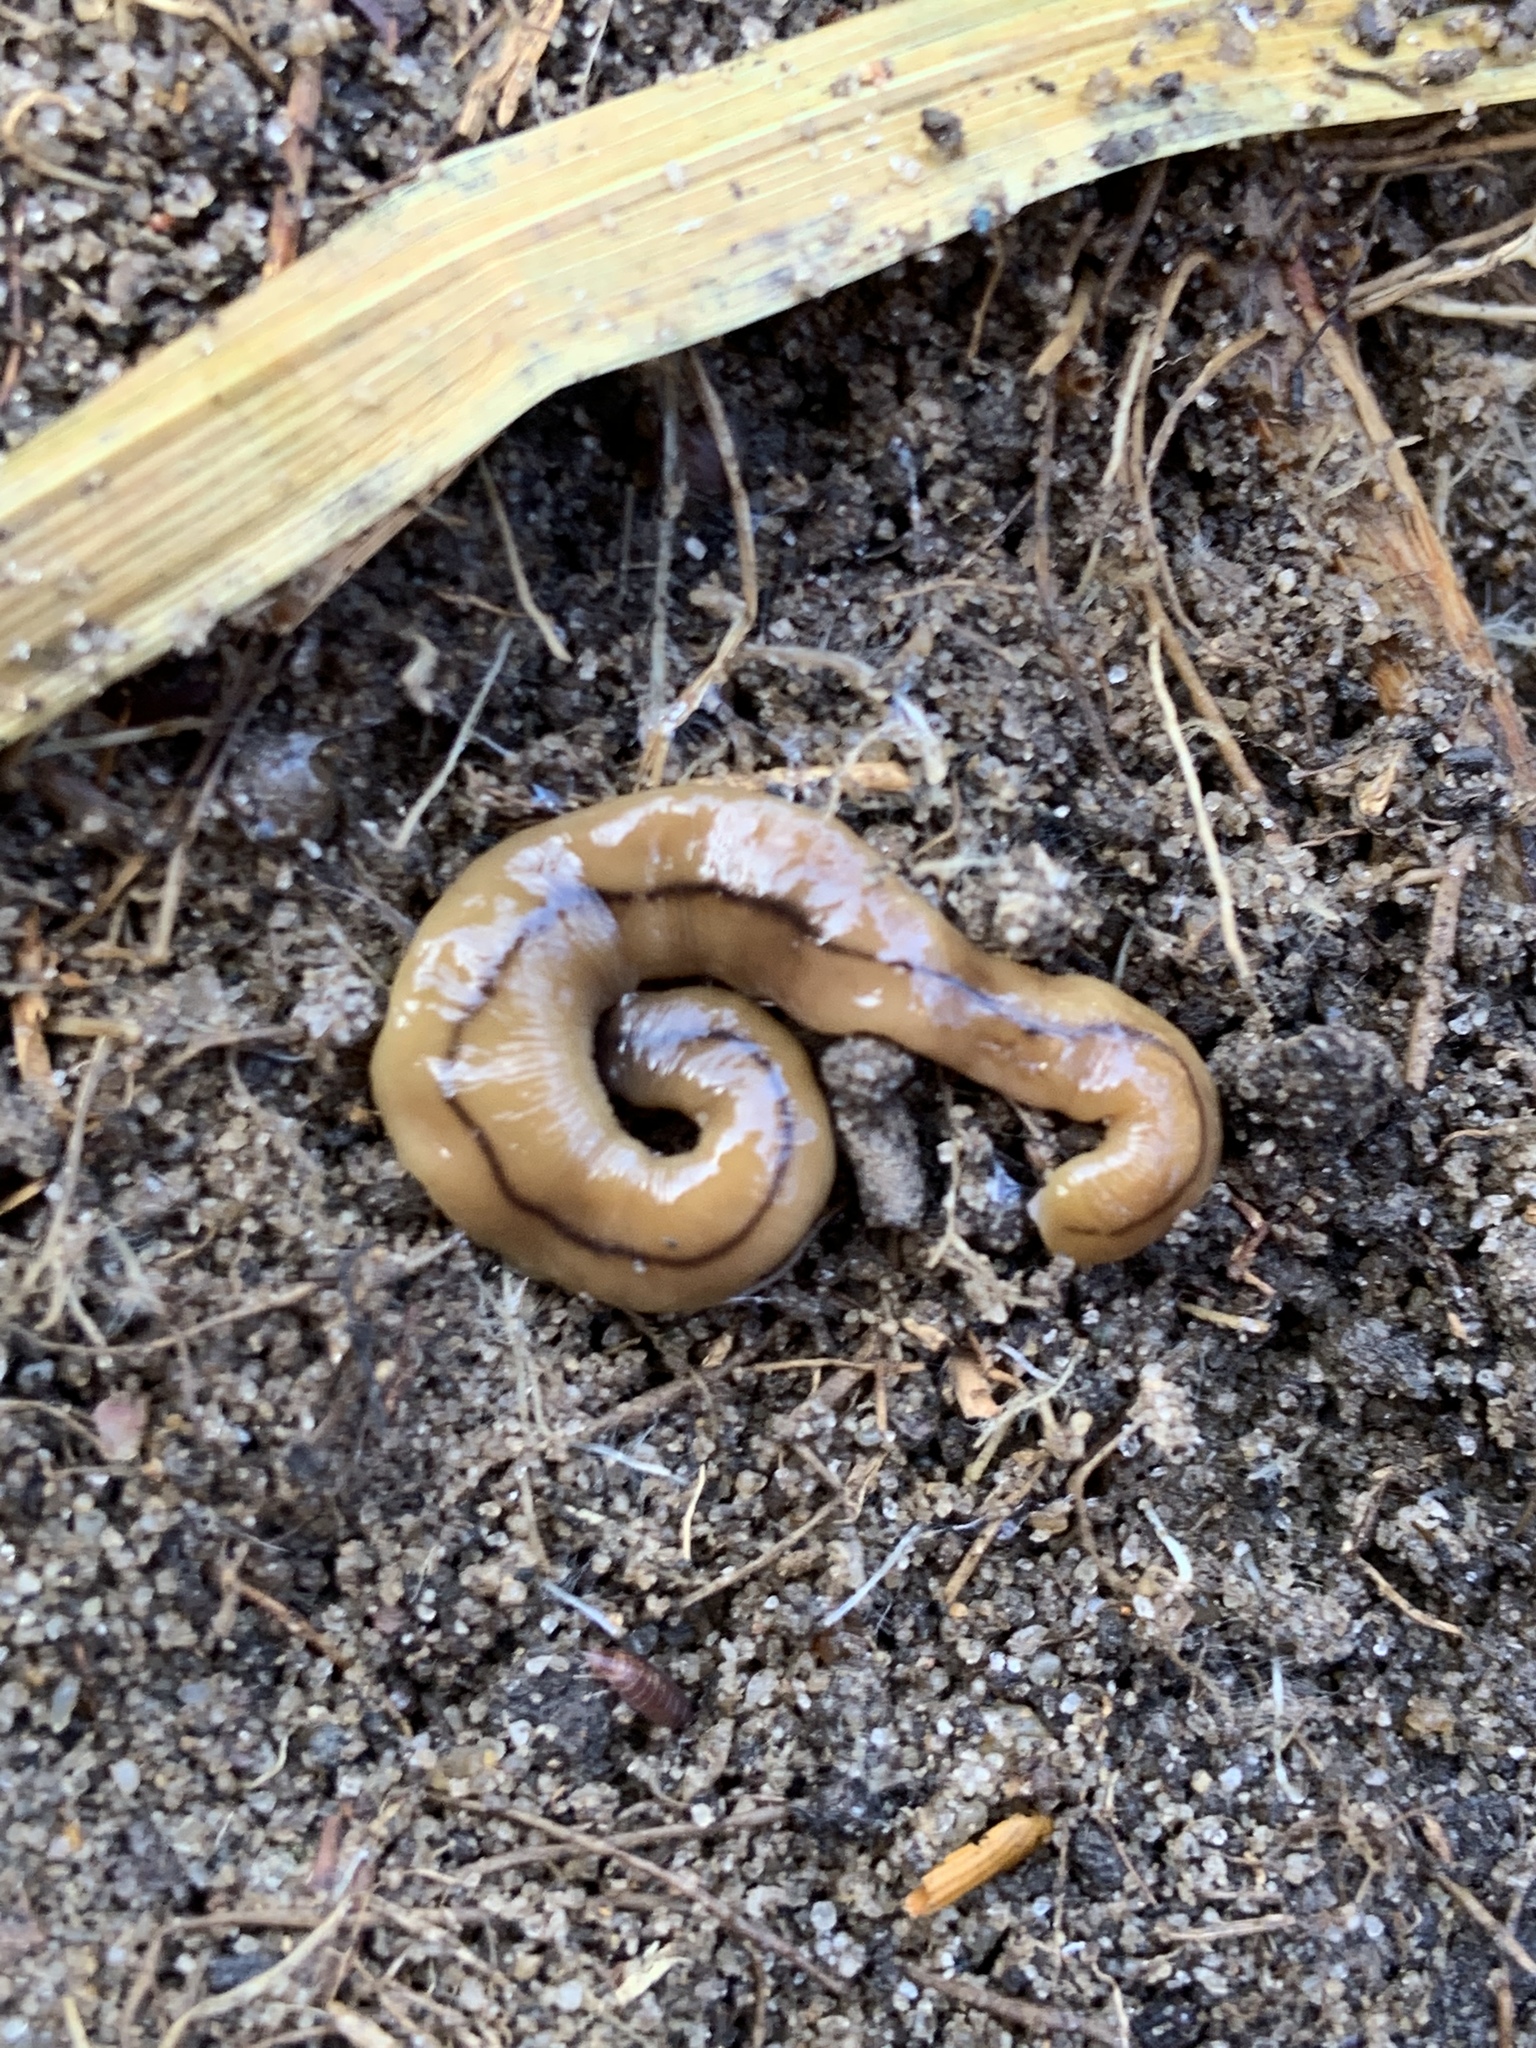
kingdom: Animalia
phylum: Platyhelminthes
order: Tricladida
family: Geoplanidae
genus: Bipalium
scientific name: Bipalium adventitium
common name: Land planarian
